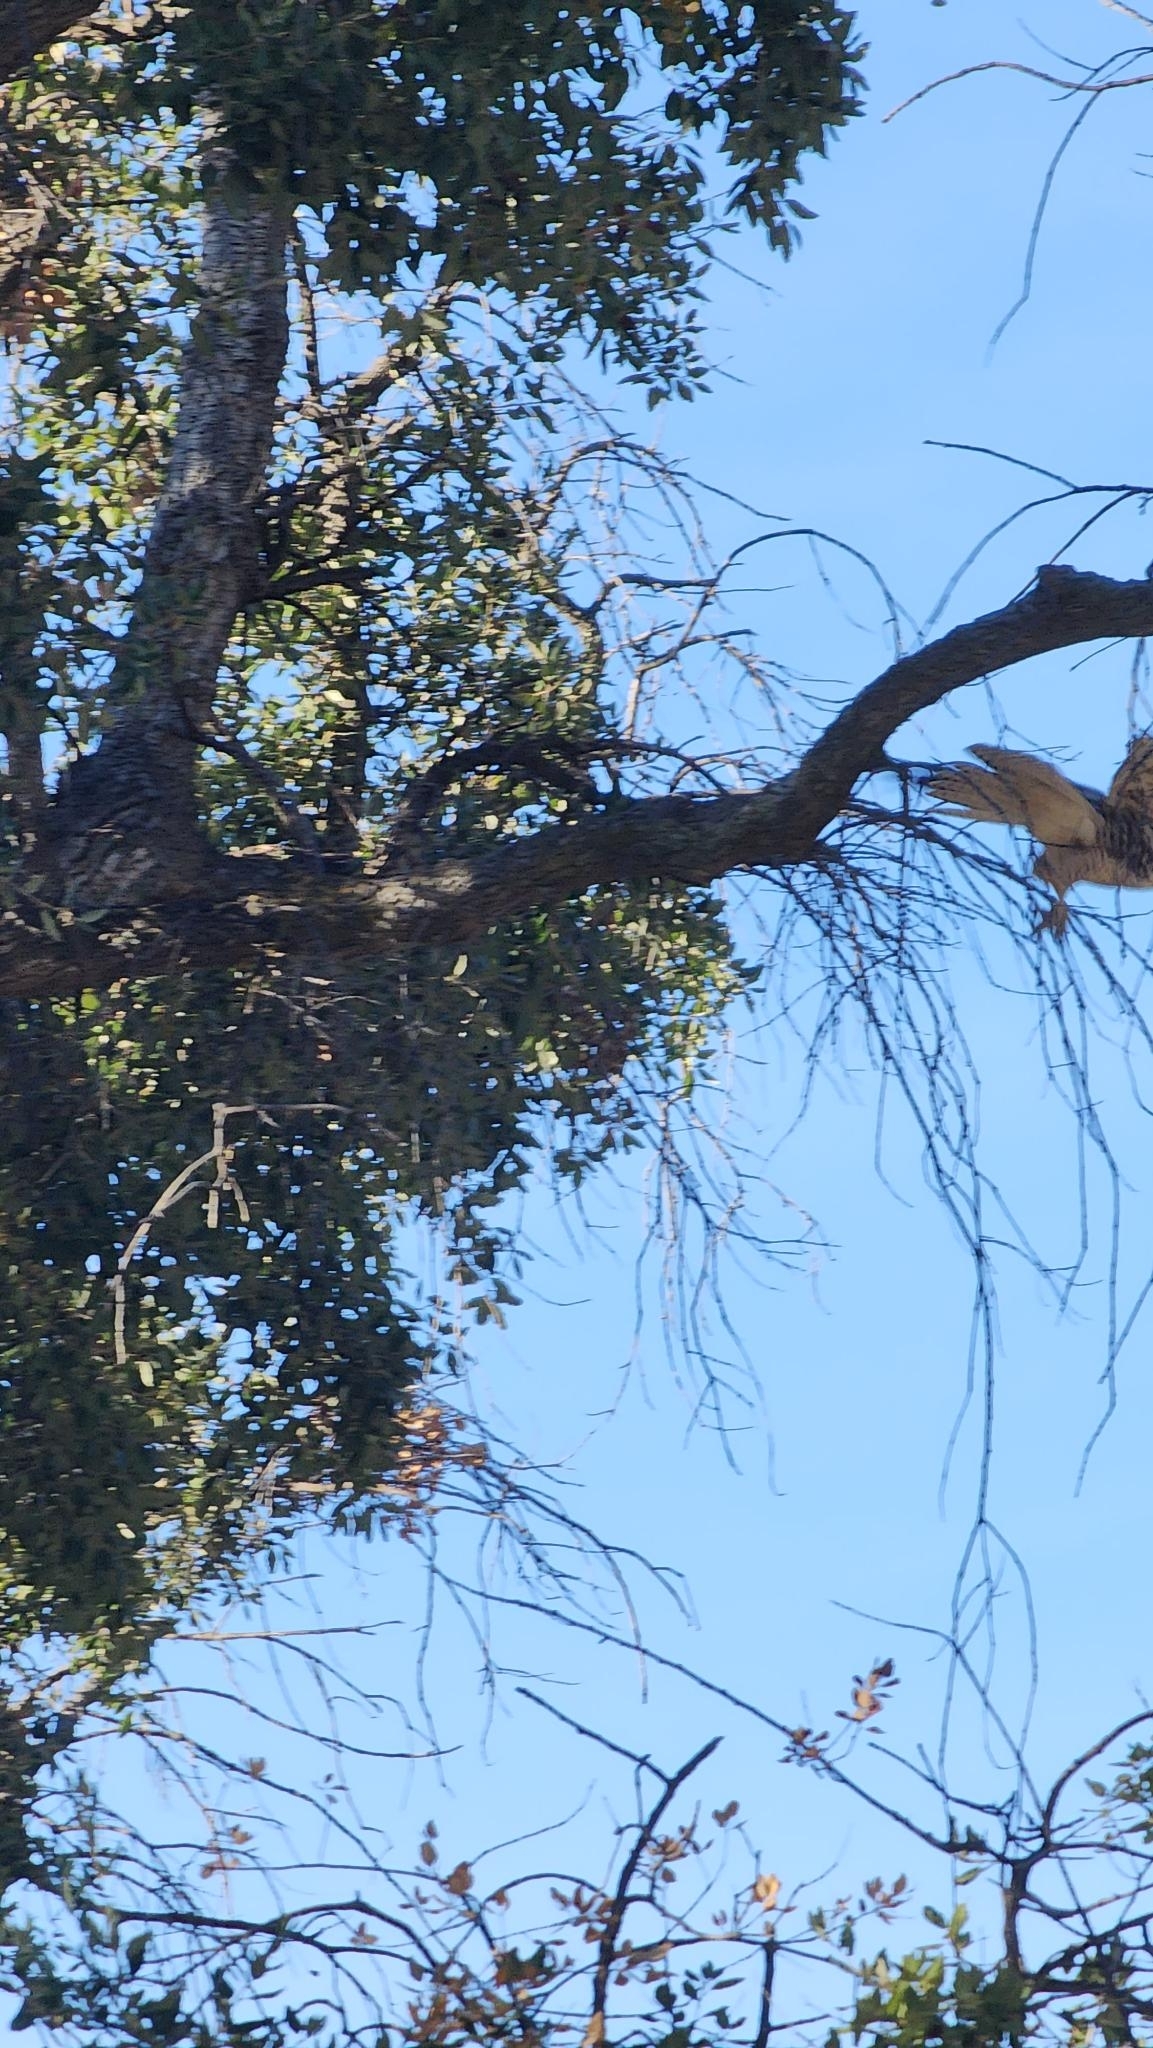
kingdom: Animalia
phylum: Chordata
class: Aves
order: Accipitriformes
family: Accipitridae
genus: Buteo
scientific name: Buteo jamaicensis
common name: Red-tailed hawk
